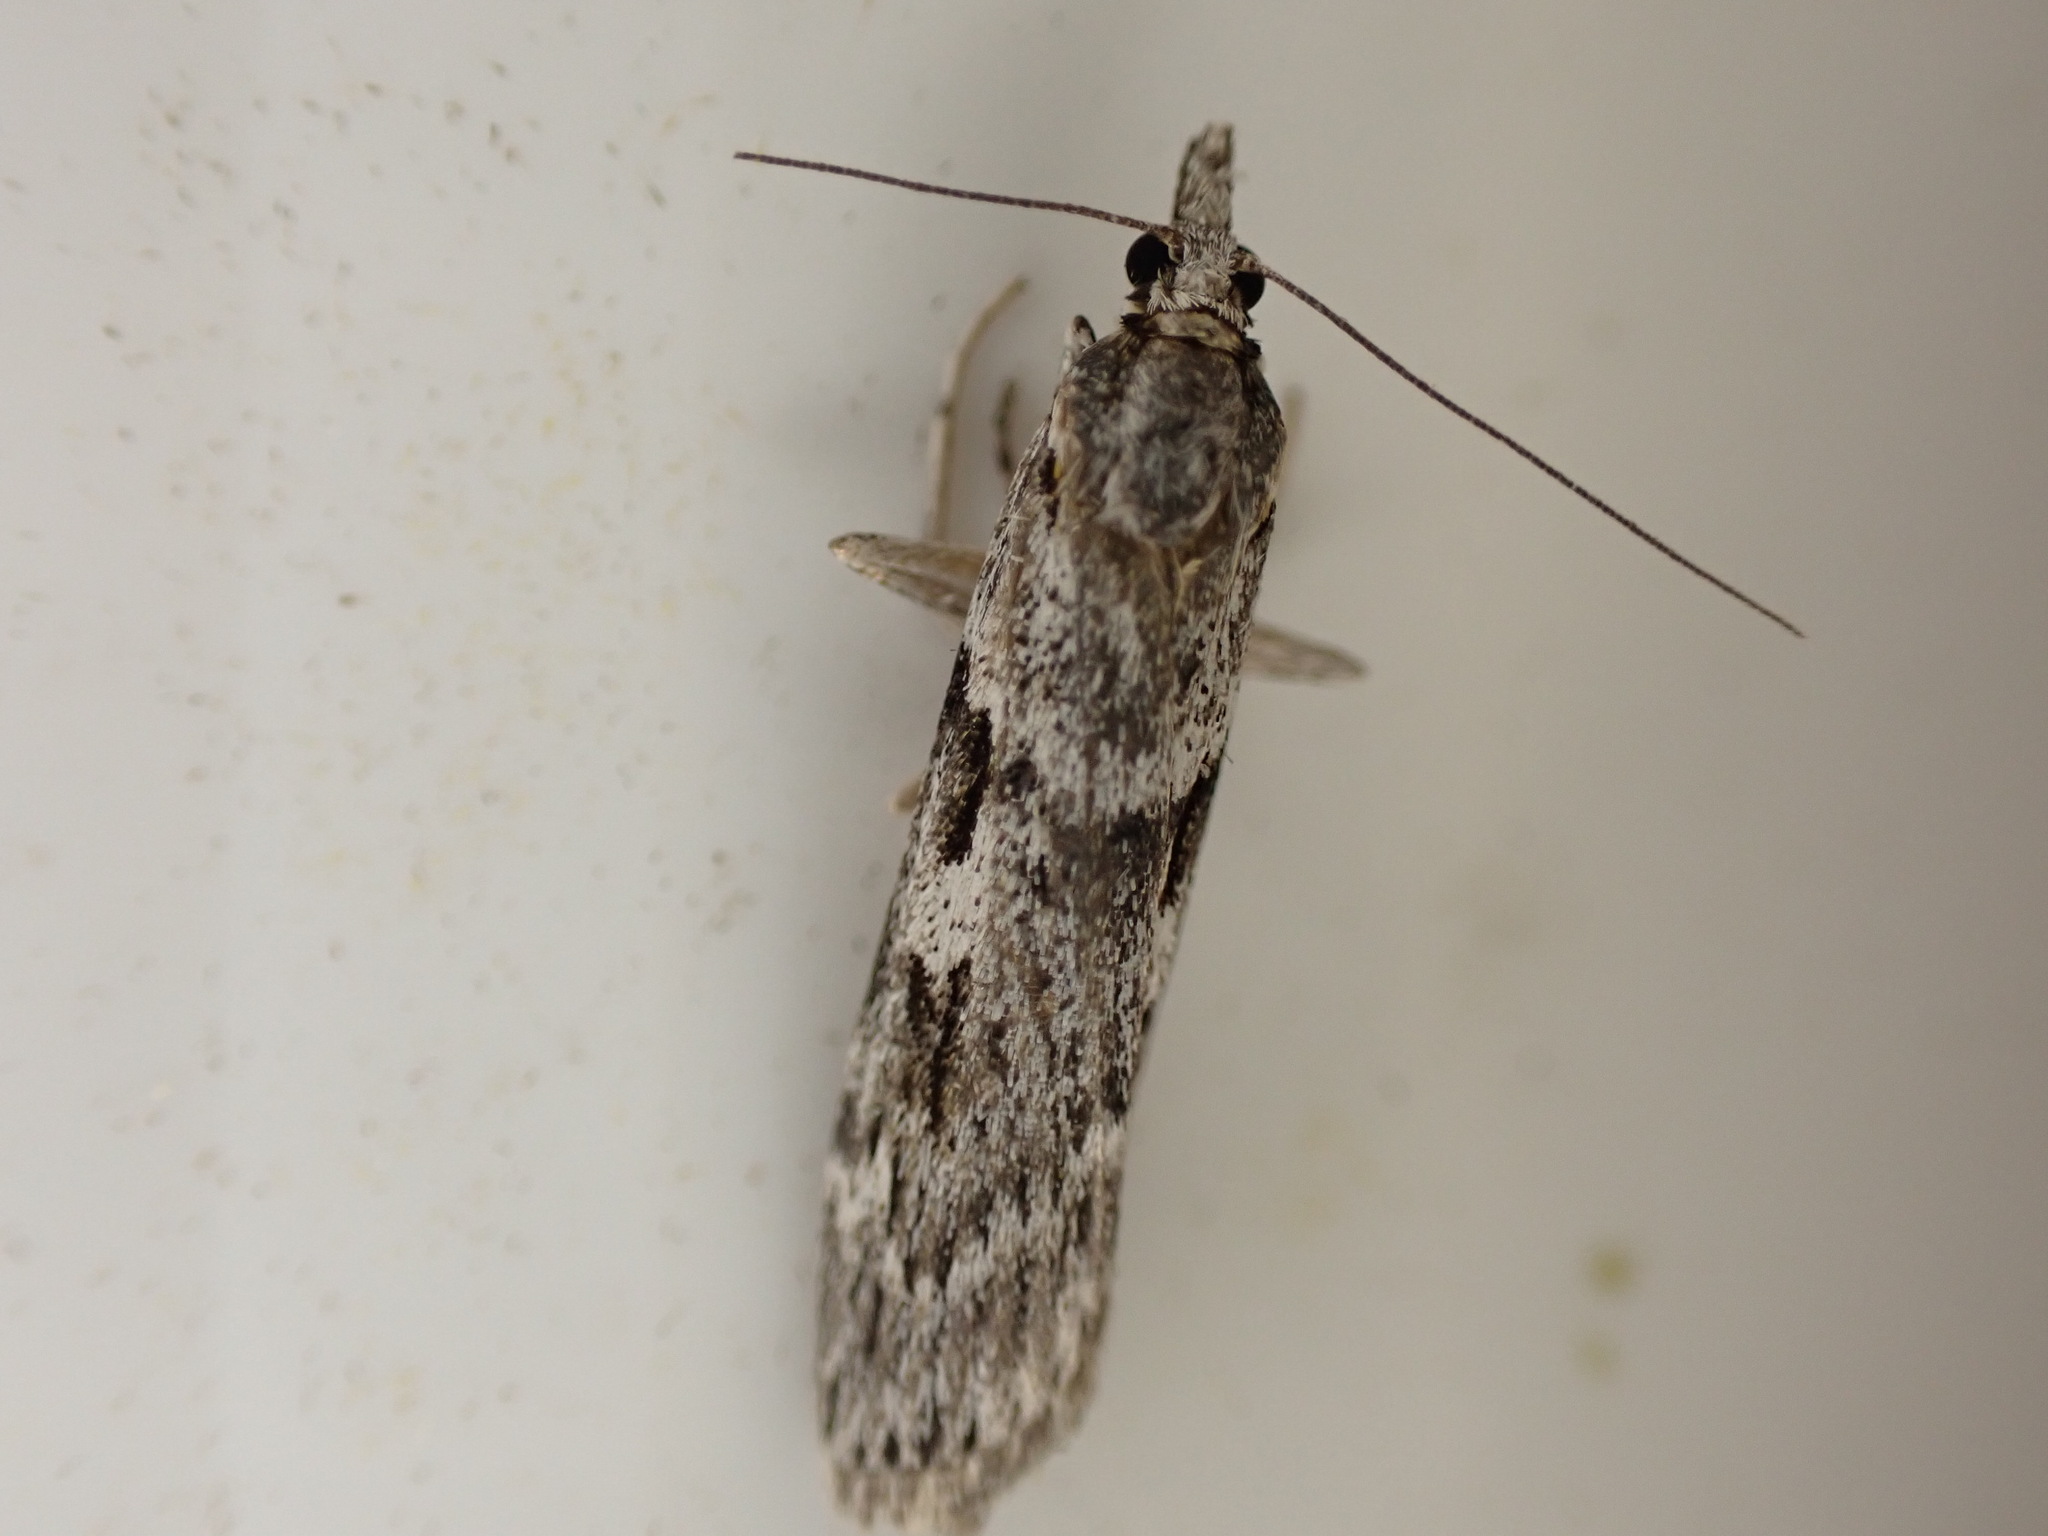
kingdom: Animalia
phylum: Arthropoda
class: Insecta
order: Lepidoptera
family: Crambidae
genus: Scoparia
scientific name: Scoparia halopis
